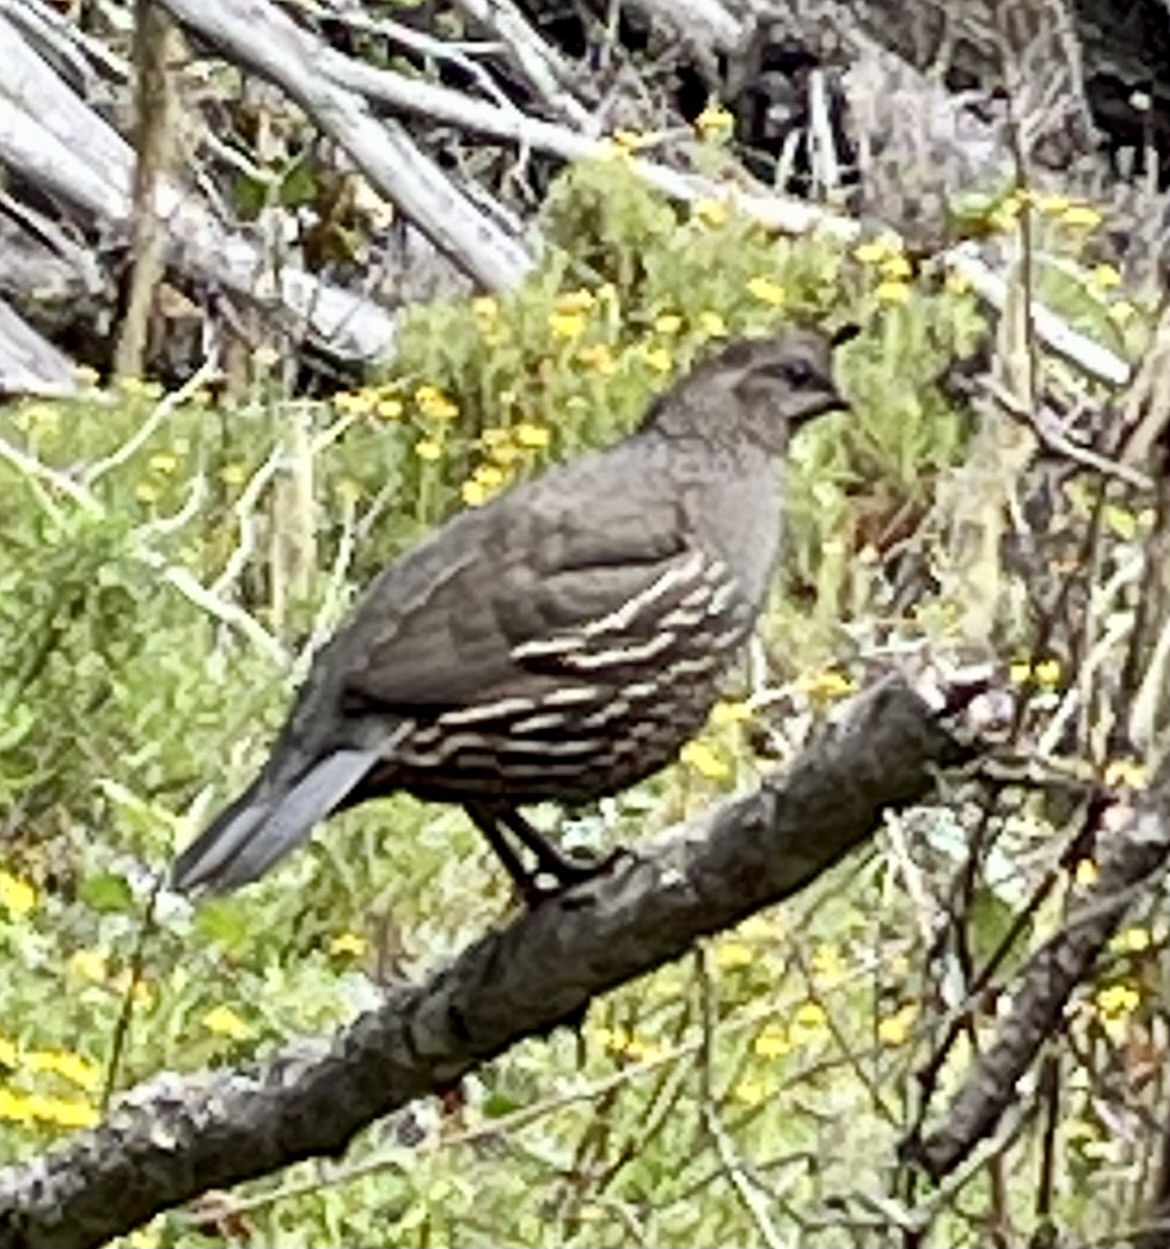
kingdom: Animalia
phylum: Chordata
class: Aves
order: Galliformes
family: Odontophoridae
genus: Callipepla
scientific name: Callipepla californica
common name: California quail
